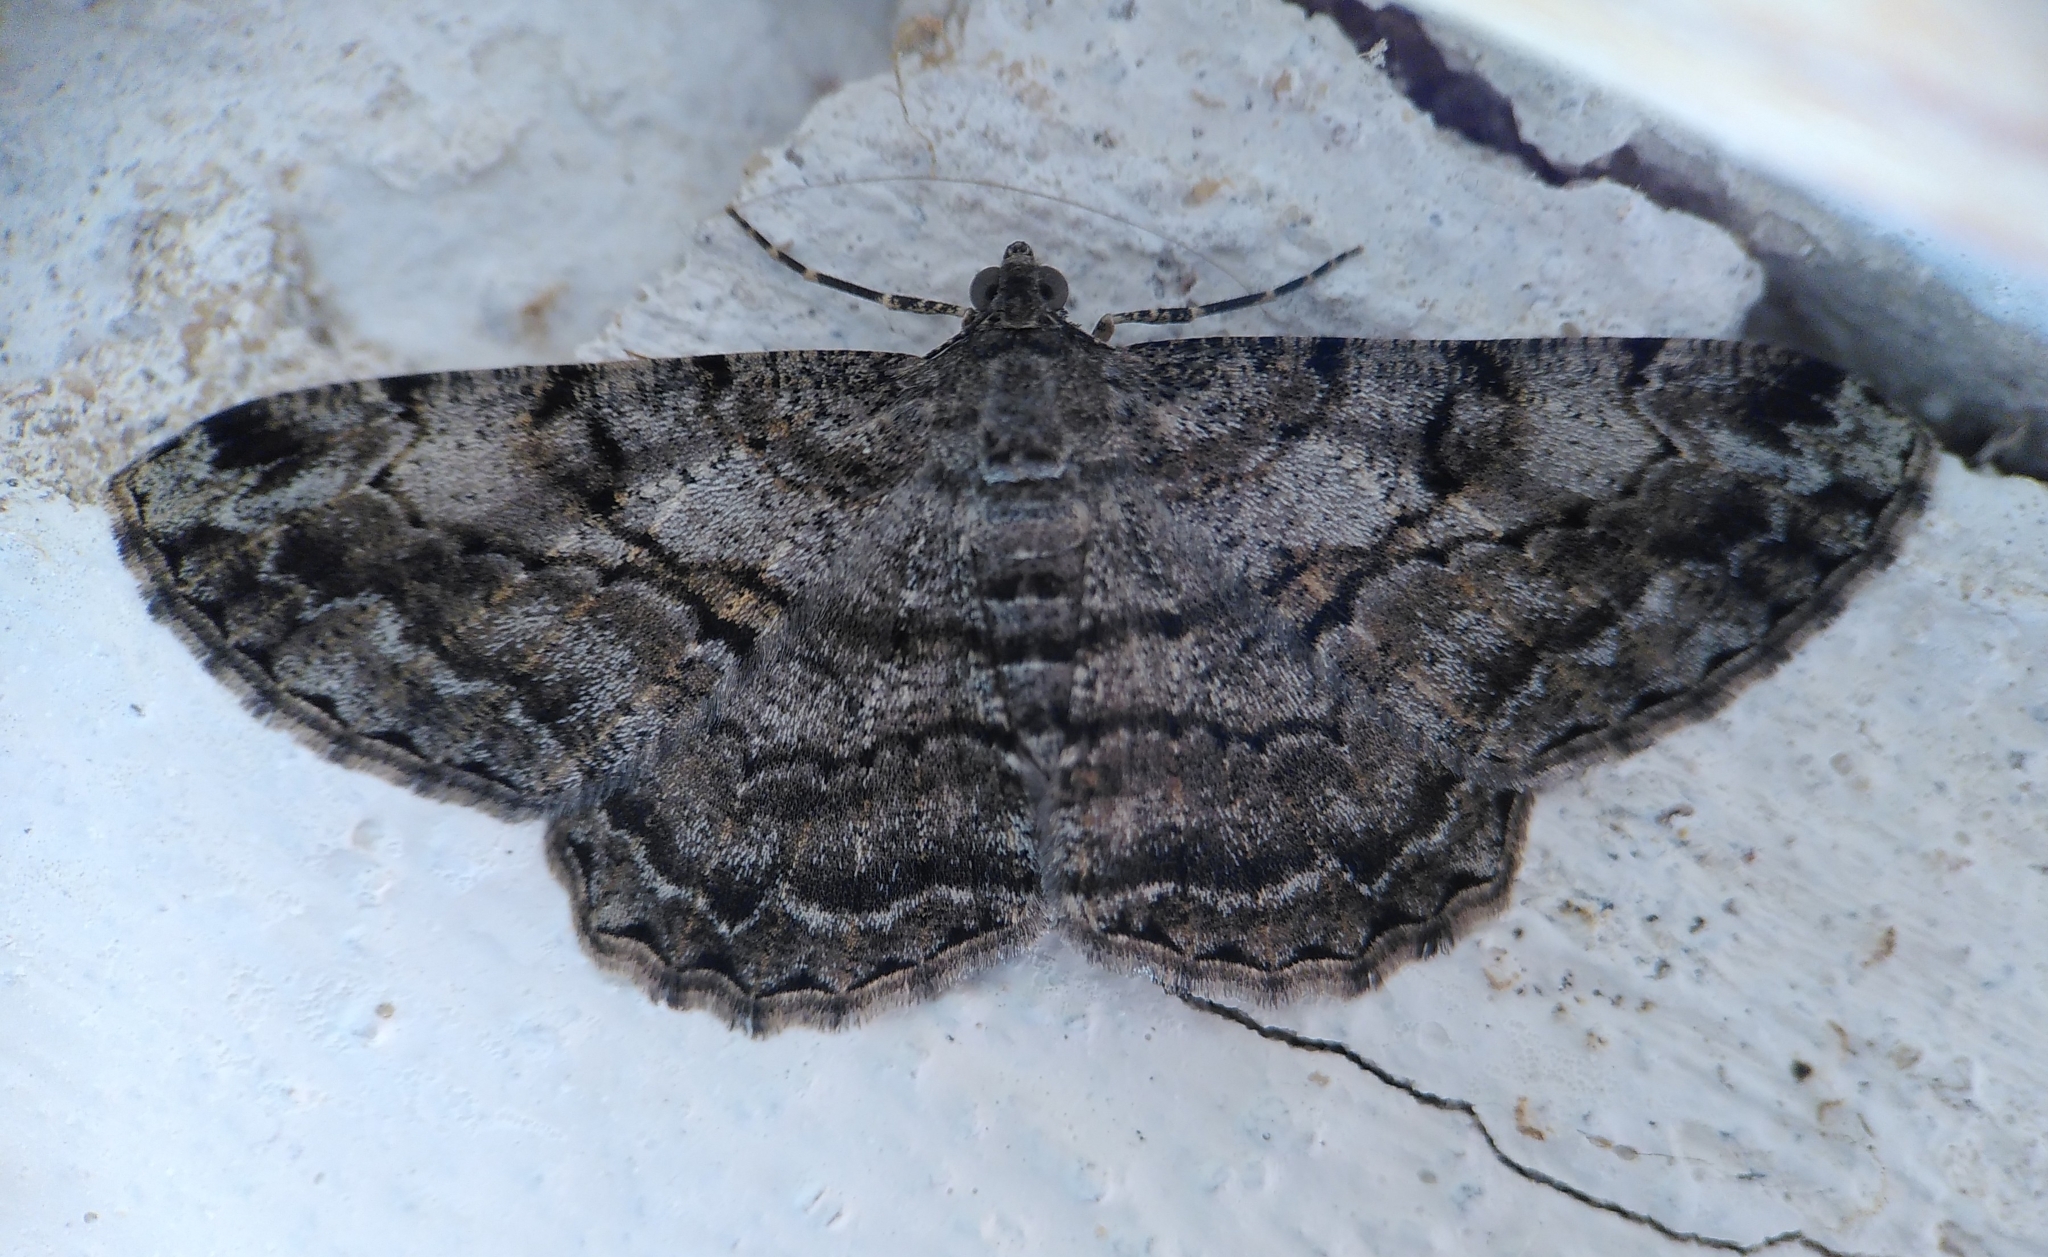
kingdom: Animalia
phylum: Arthropoda
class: Insecta
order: Lepidoptera
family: Geometridae
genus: Peribatodes
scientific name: Peribatodes rhomboidaria
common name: Willow beauty
